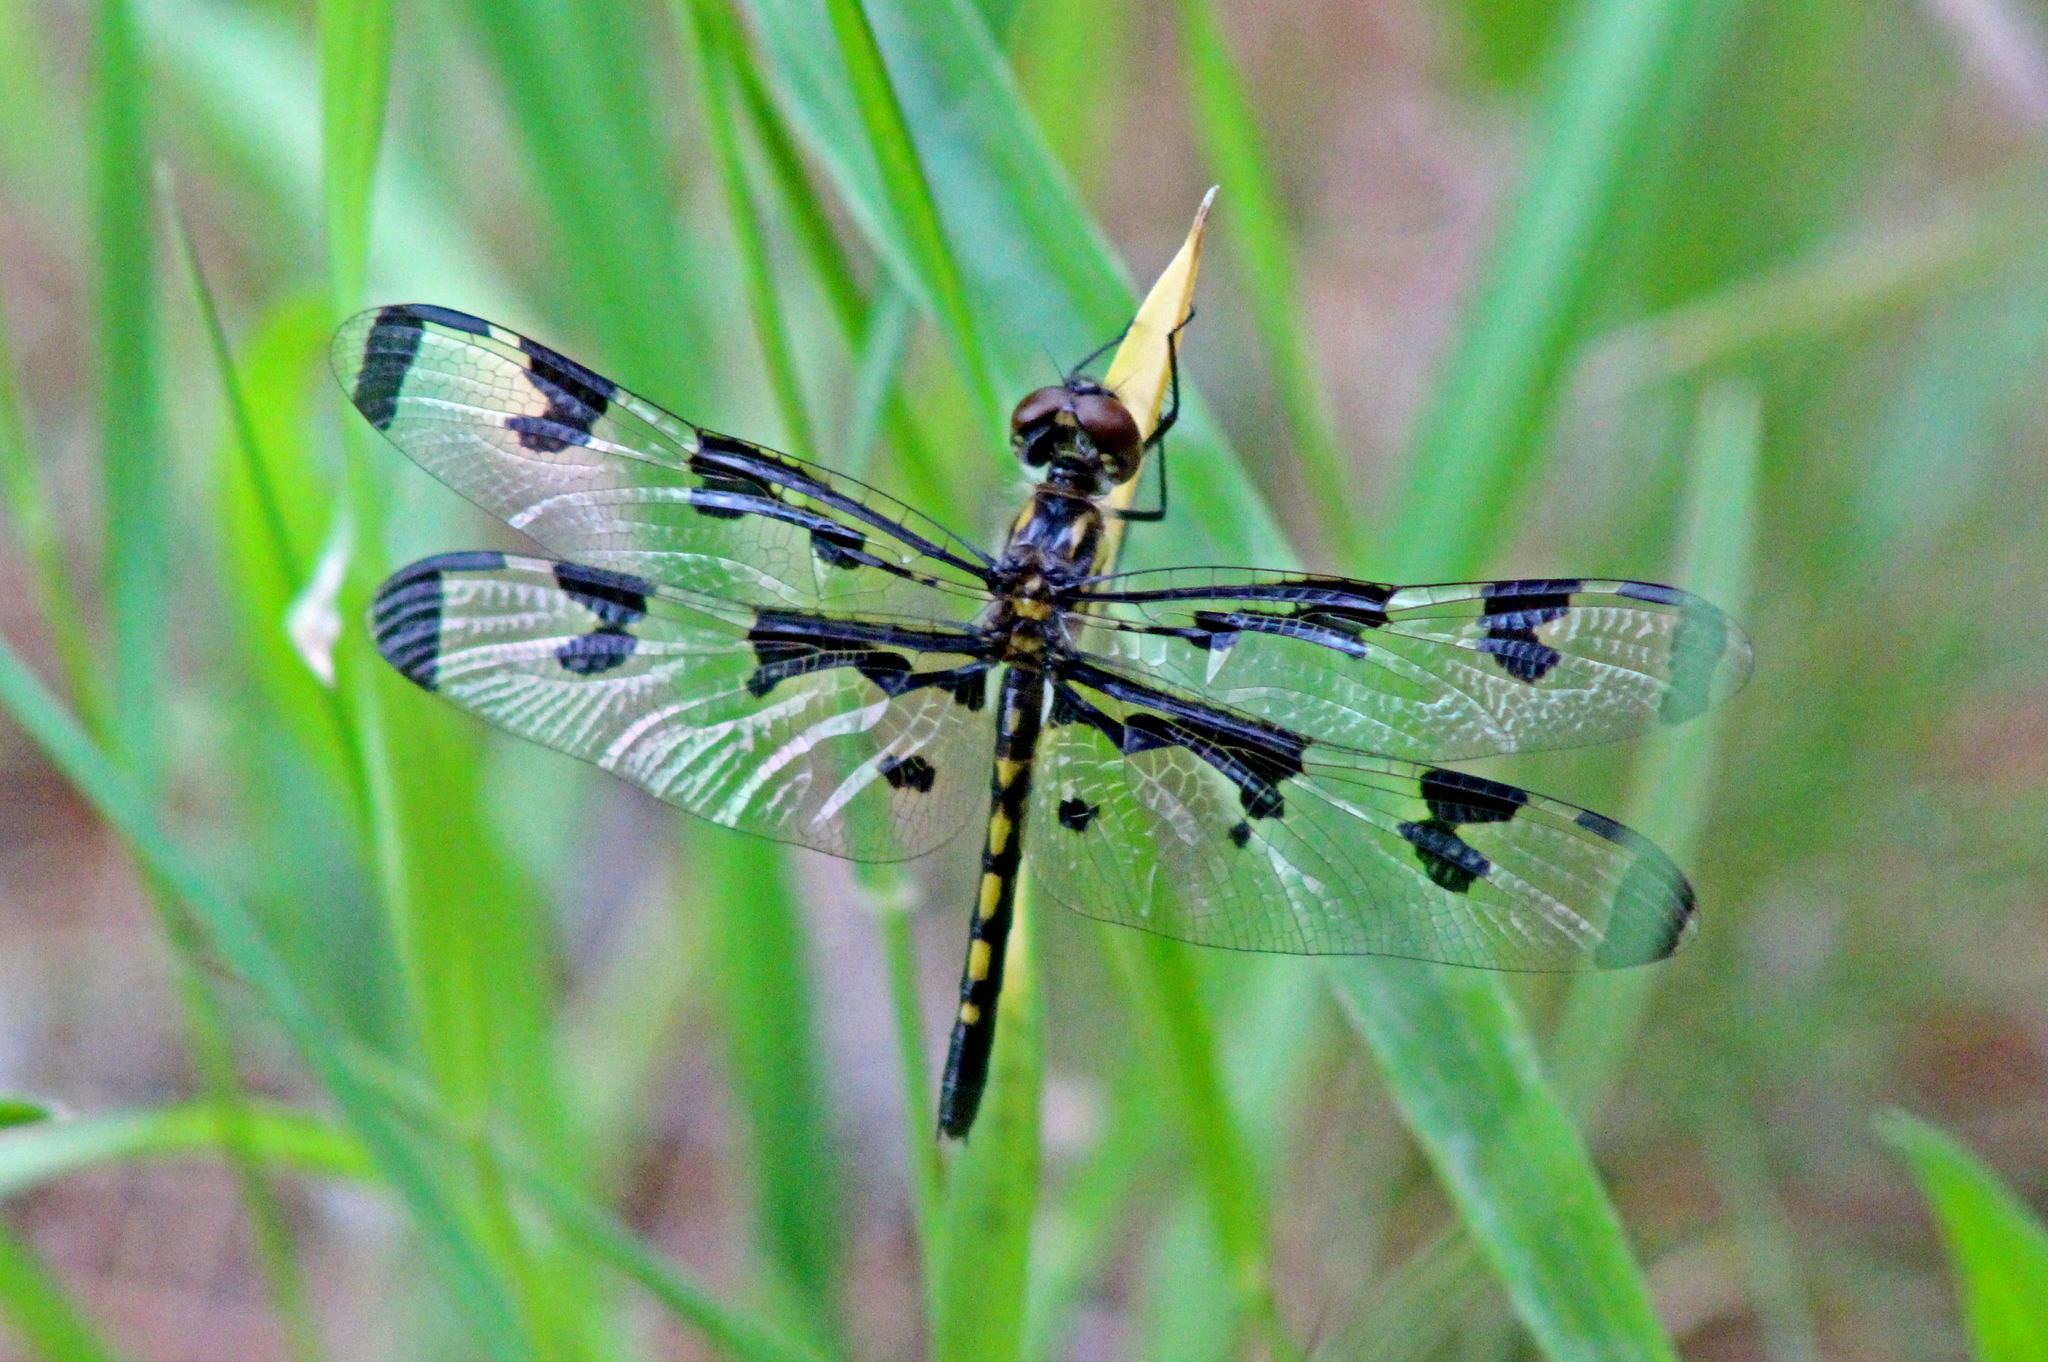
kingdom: Animalia
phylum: Arthropoda
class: Insecta
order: Odonata
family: Libellulidae
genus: Celithemis
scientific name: Celithemis fasciata
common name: Banded pennant
